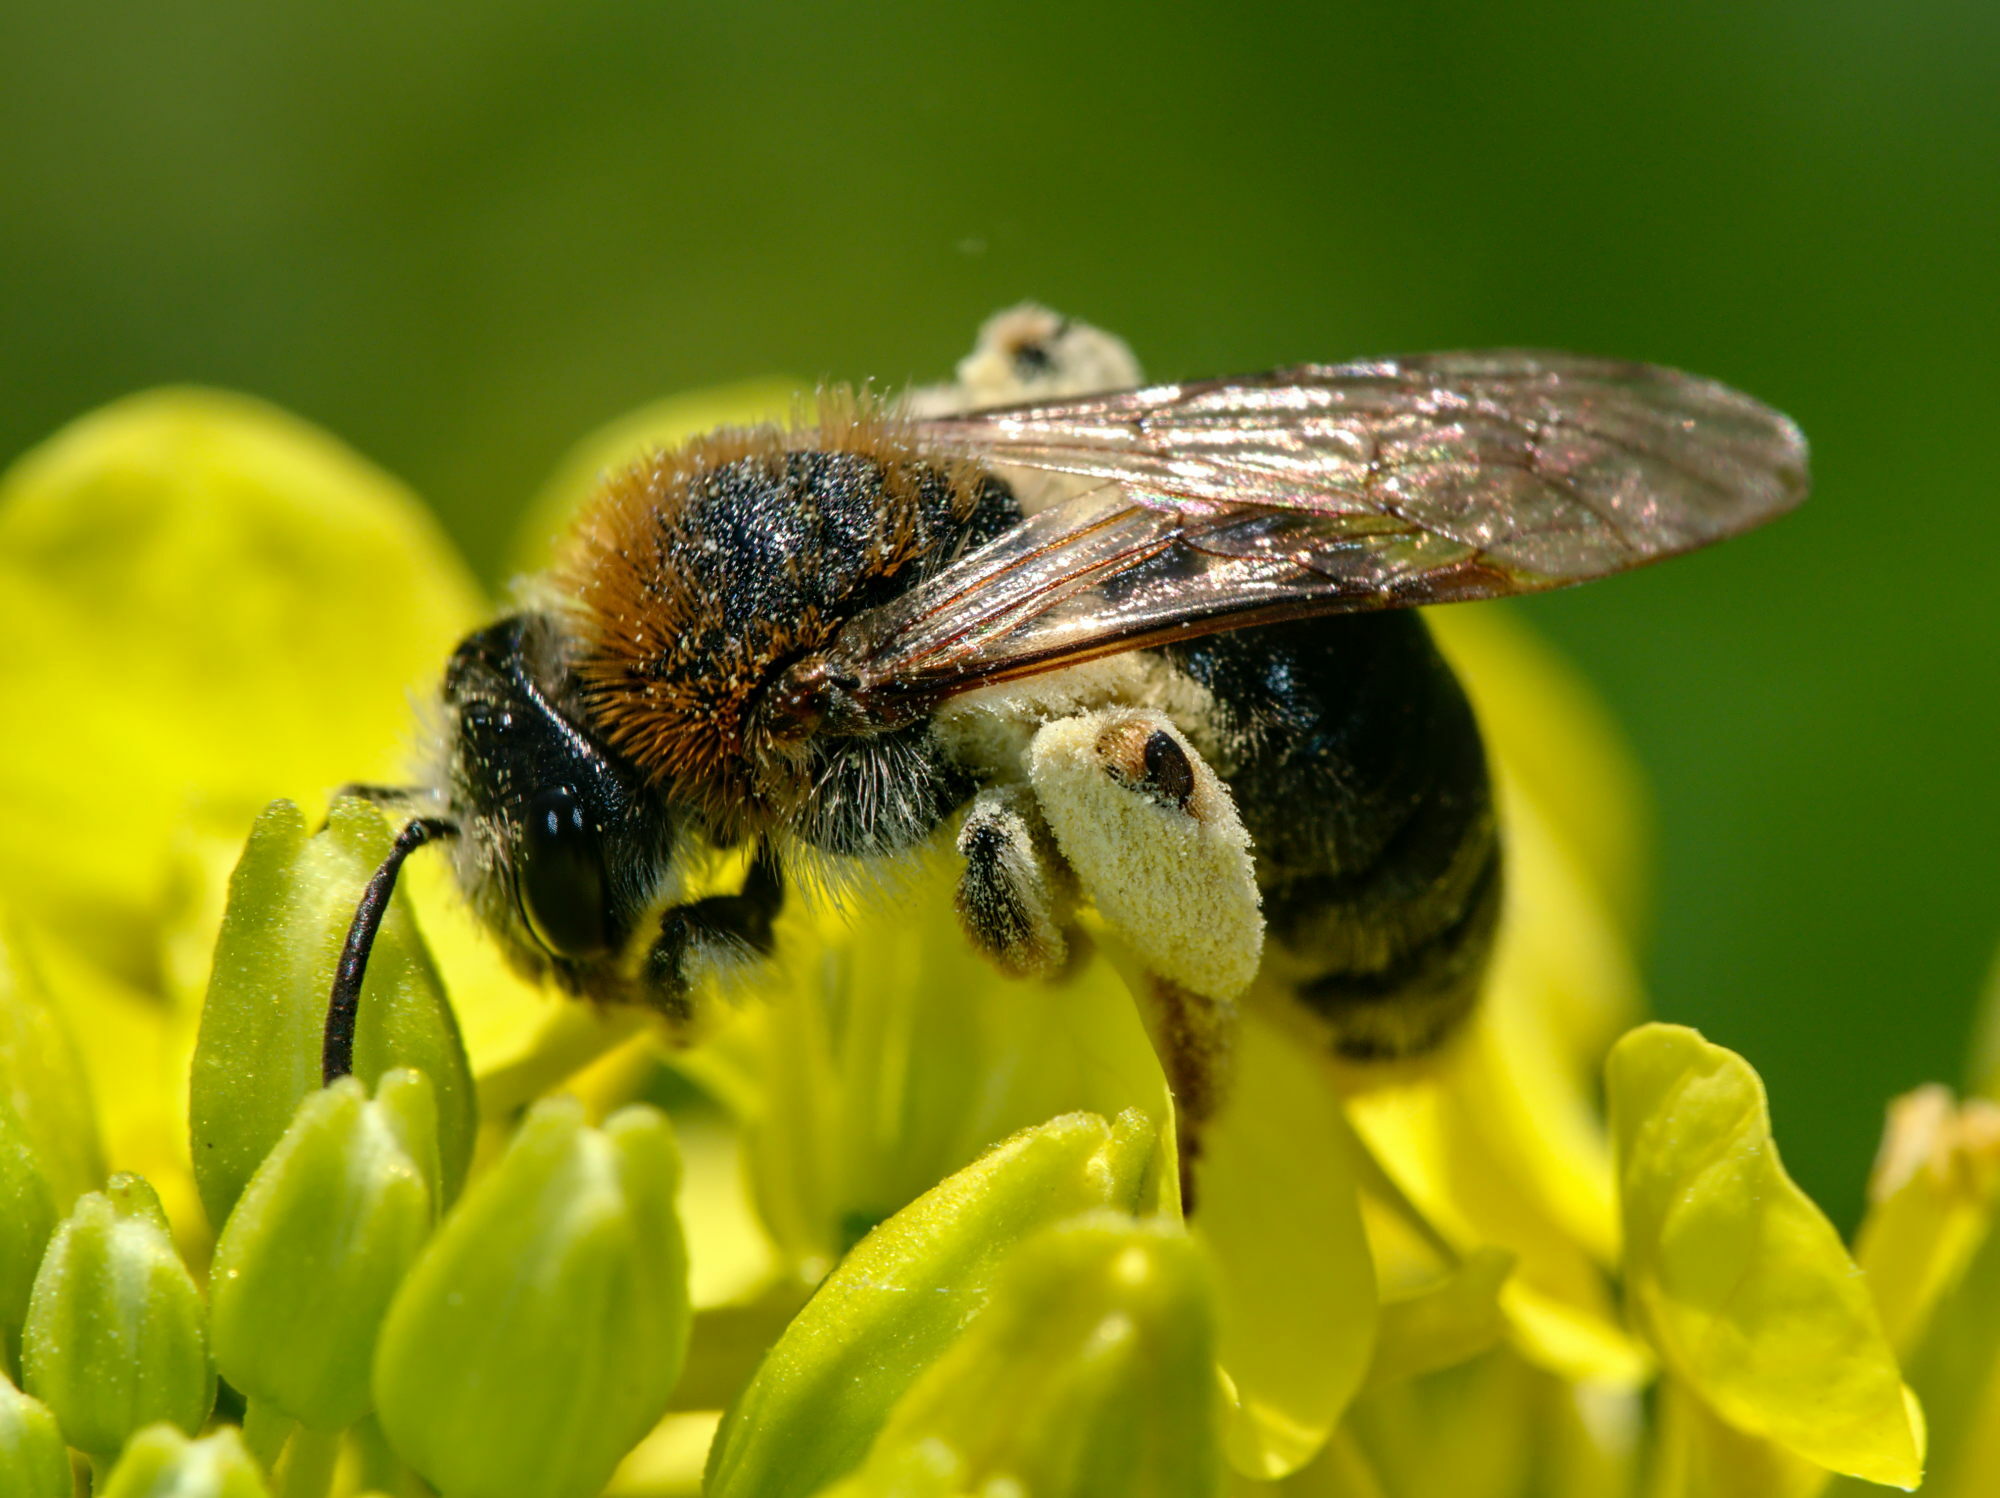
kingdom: Animalia
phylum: Arthropoda
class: Insecta
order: Hymenoptera
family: Andrenidae
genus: Andrena
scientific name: Andrena haemorrhoa
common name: Early mining bee
